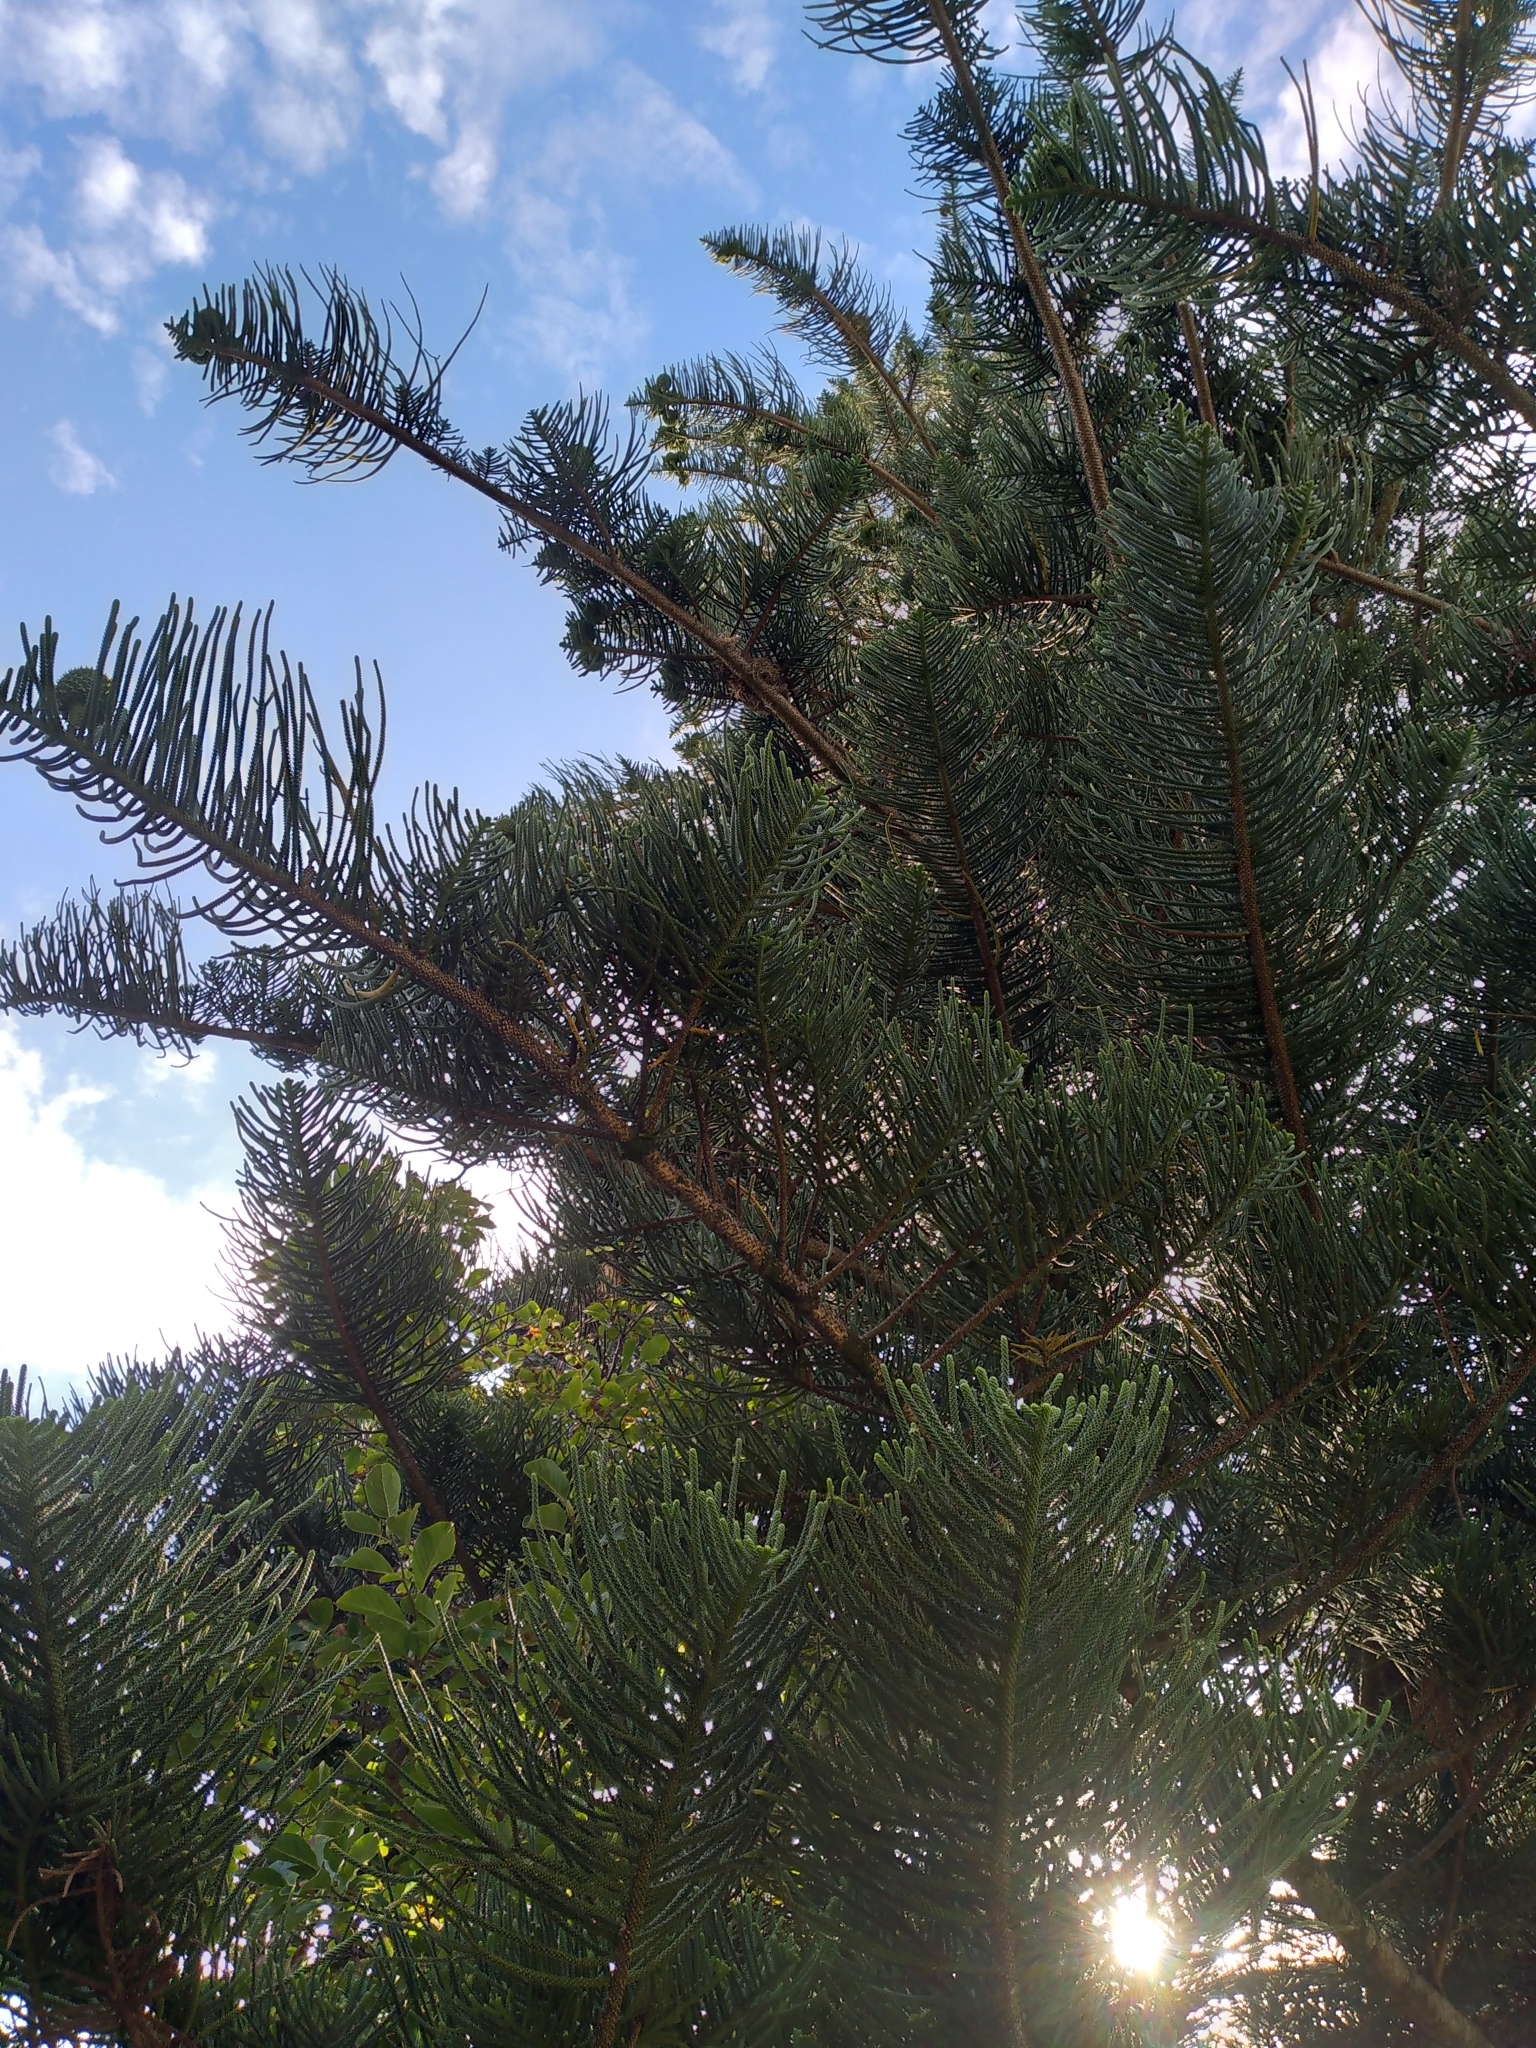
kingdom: Plantae
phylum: Tracheophyta
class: Pinopsida
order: Pinales
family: Araucariaceae
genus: Araucaria
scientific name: Araucaria heterophylla
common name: Norfolk island pine
